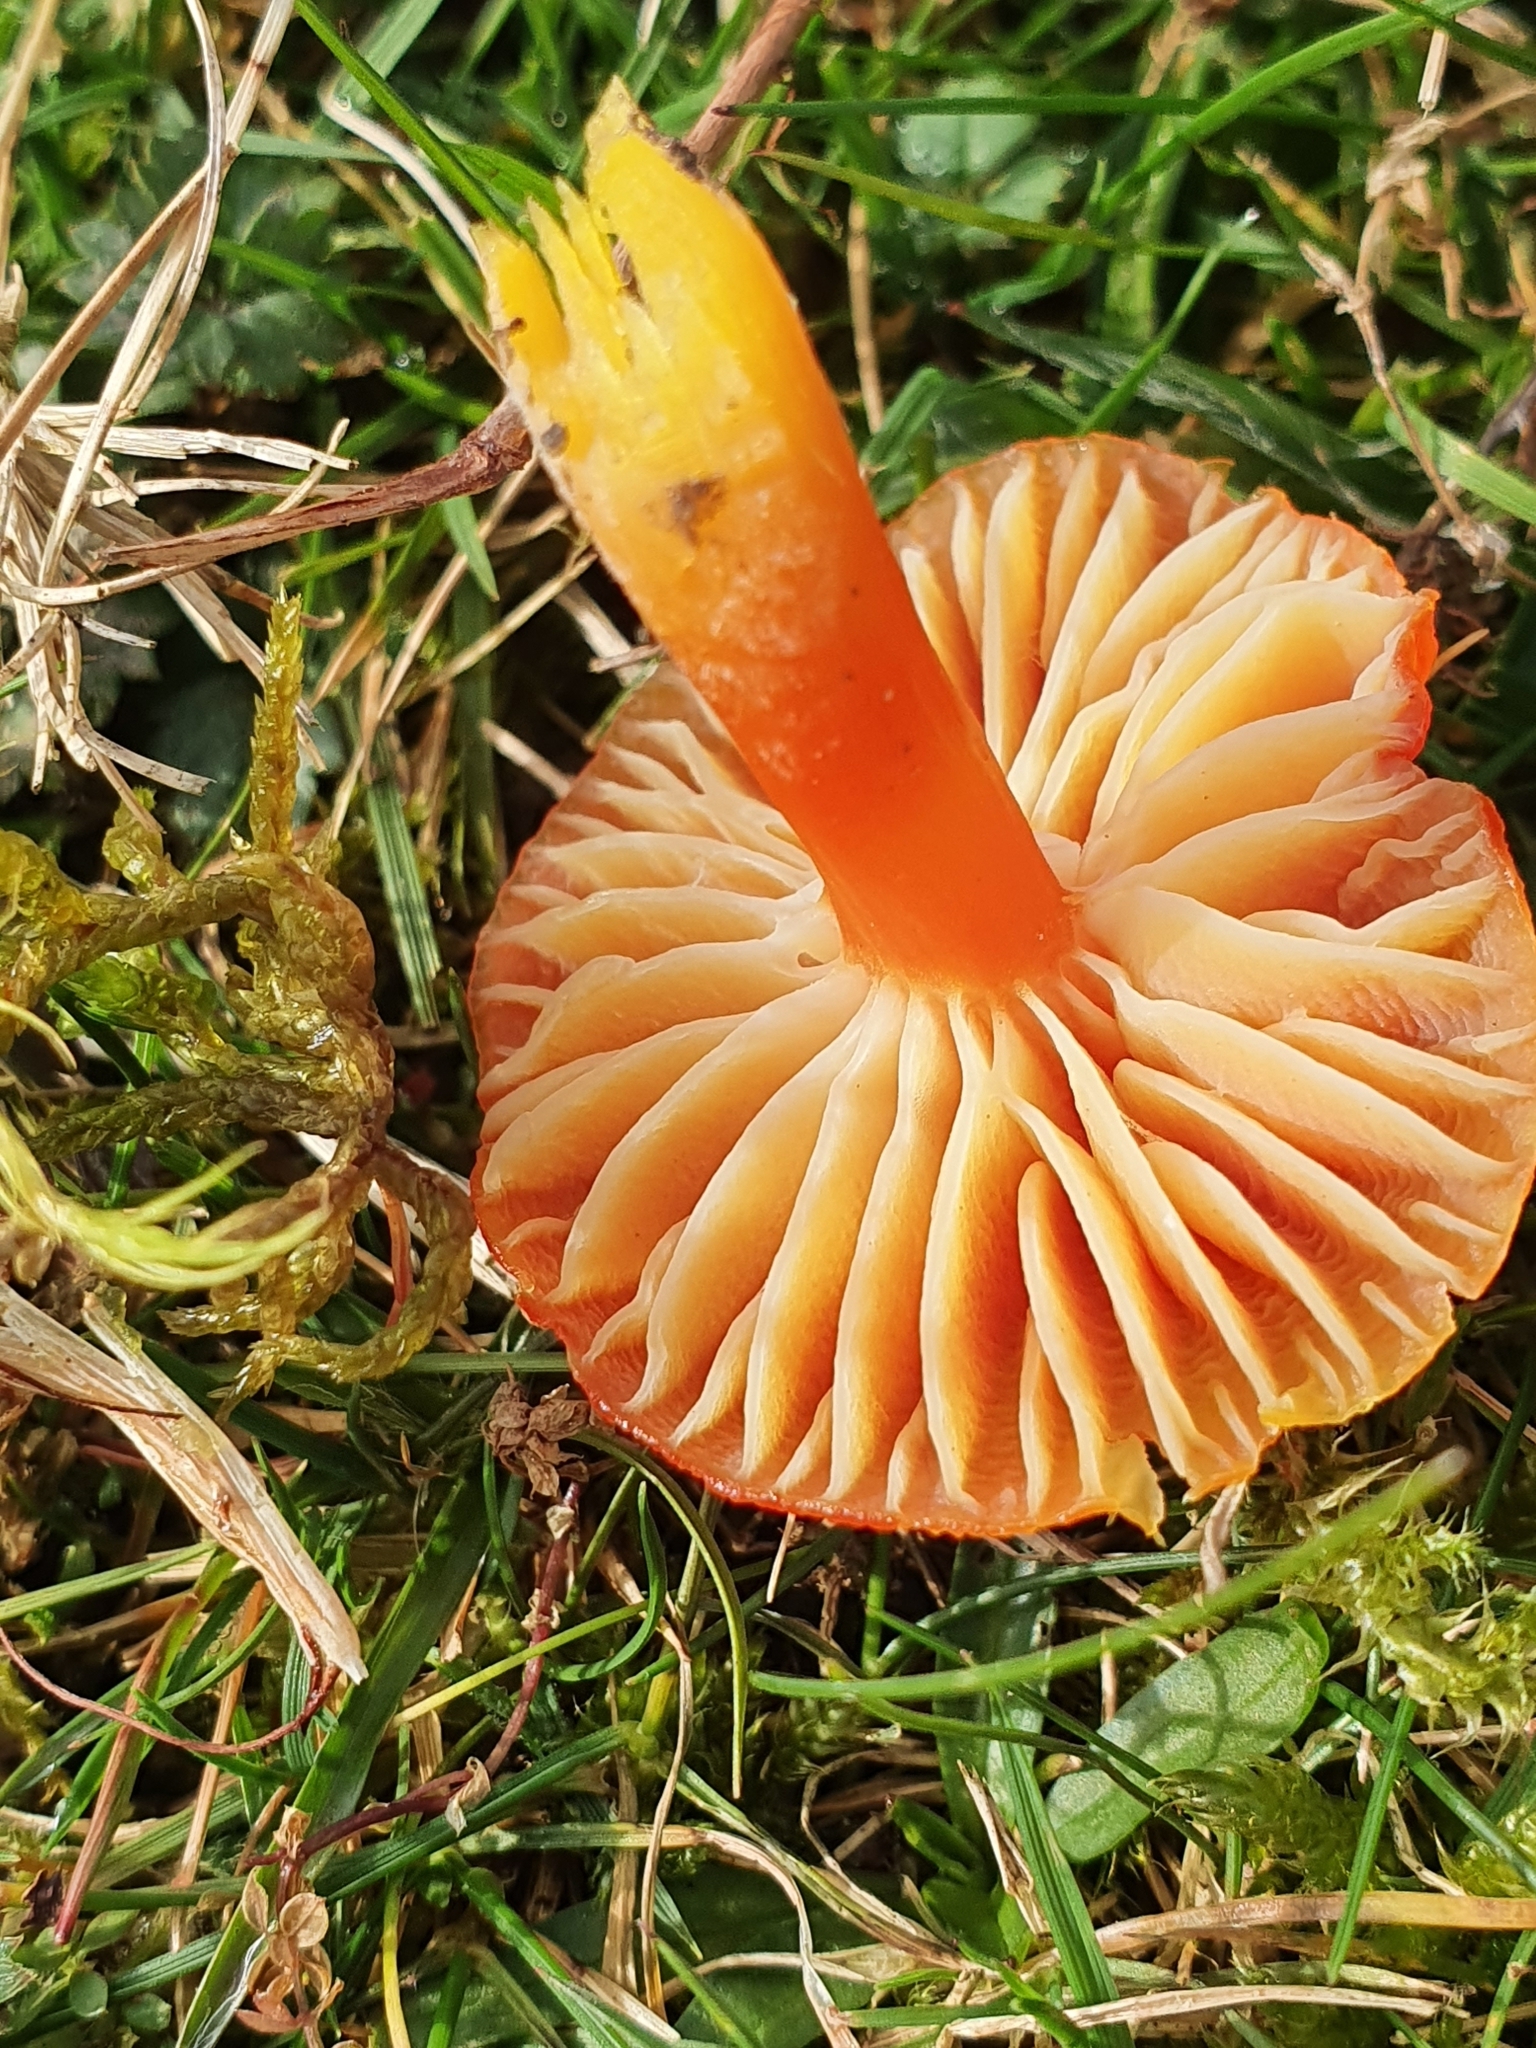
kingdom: Fungi
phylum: Basidiomycota
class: Agaricomycetes
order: Agaricales
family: Hygrophoraceae
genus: Hygrocybe
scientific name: Hygrocybe coccinea
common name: Scarlet hood
